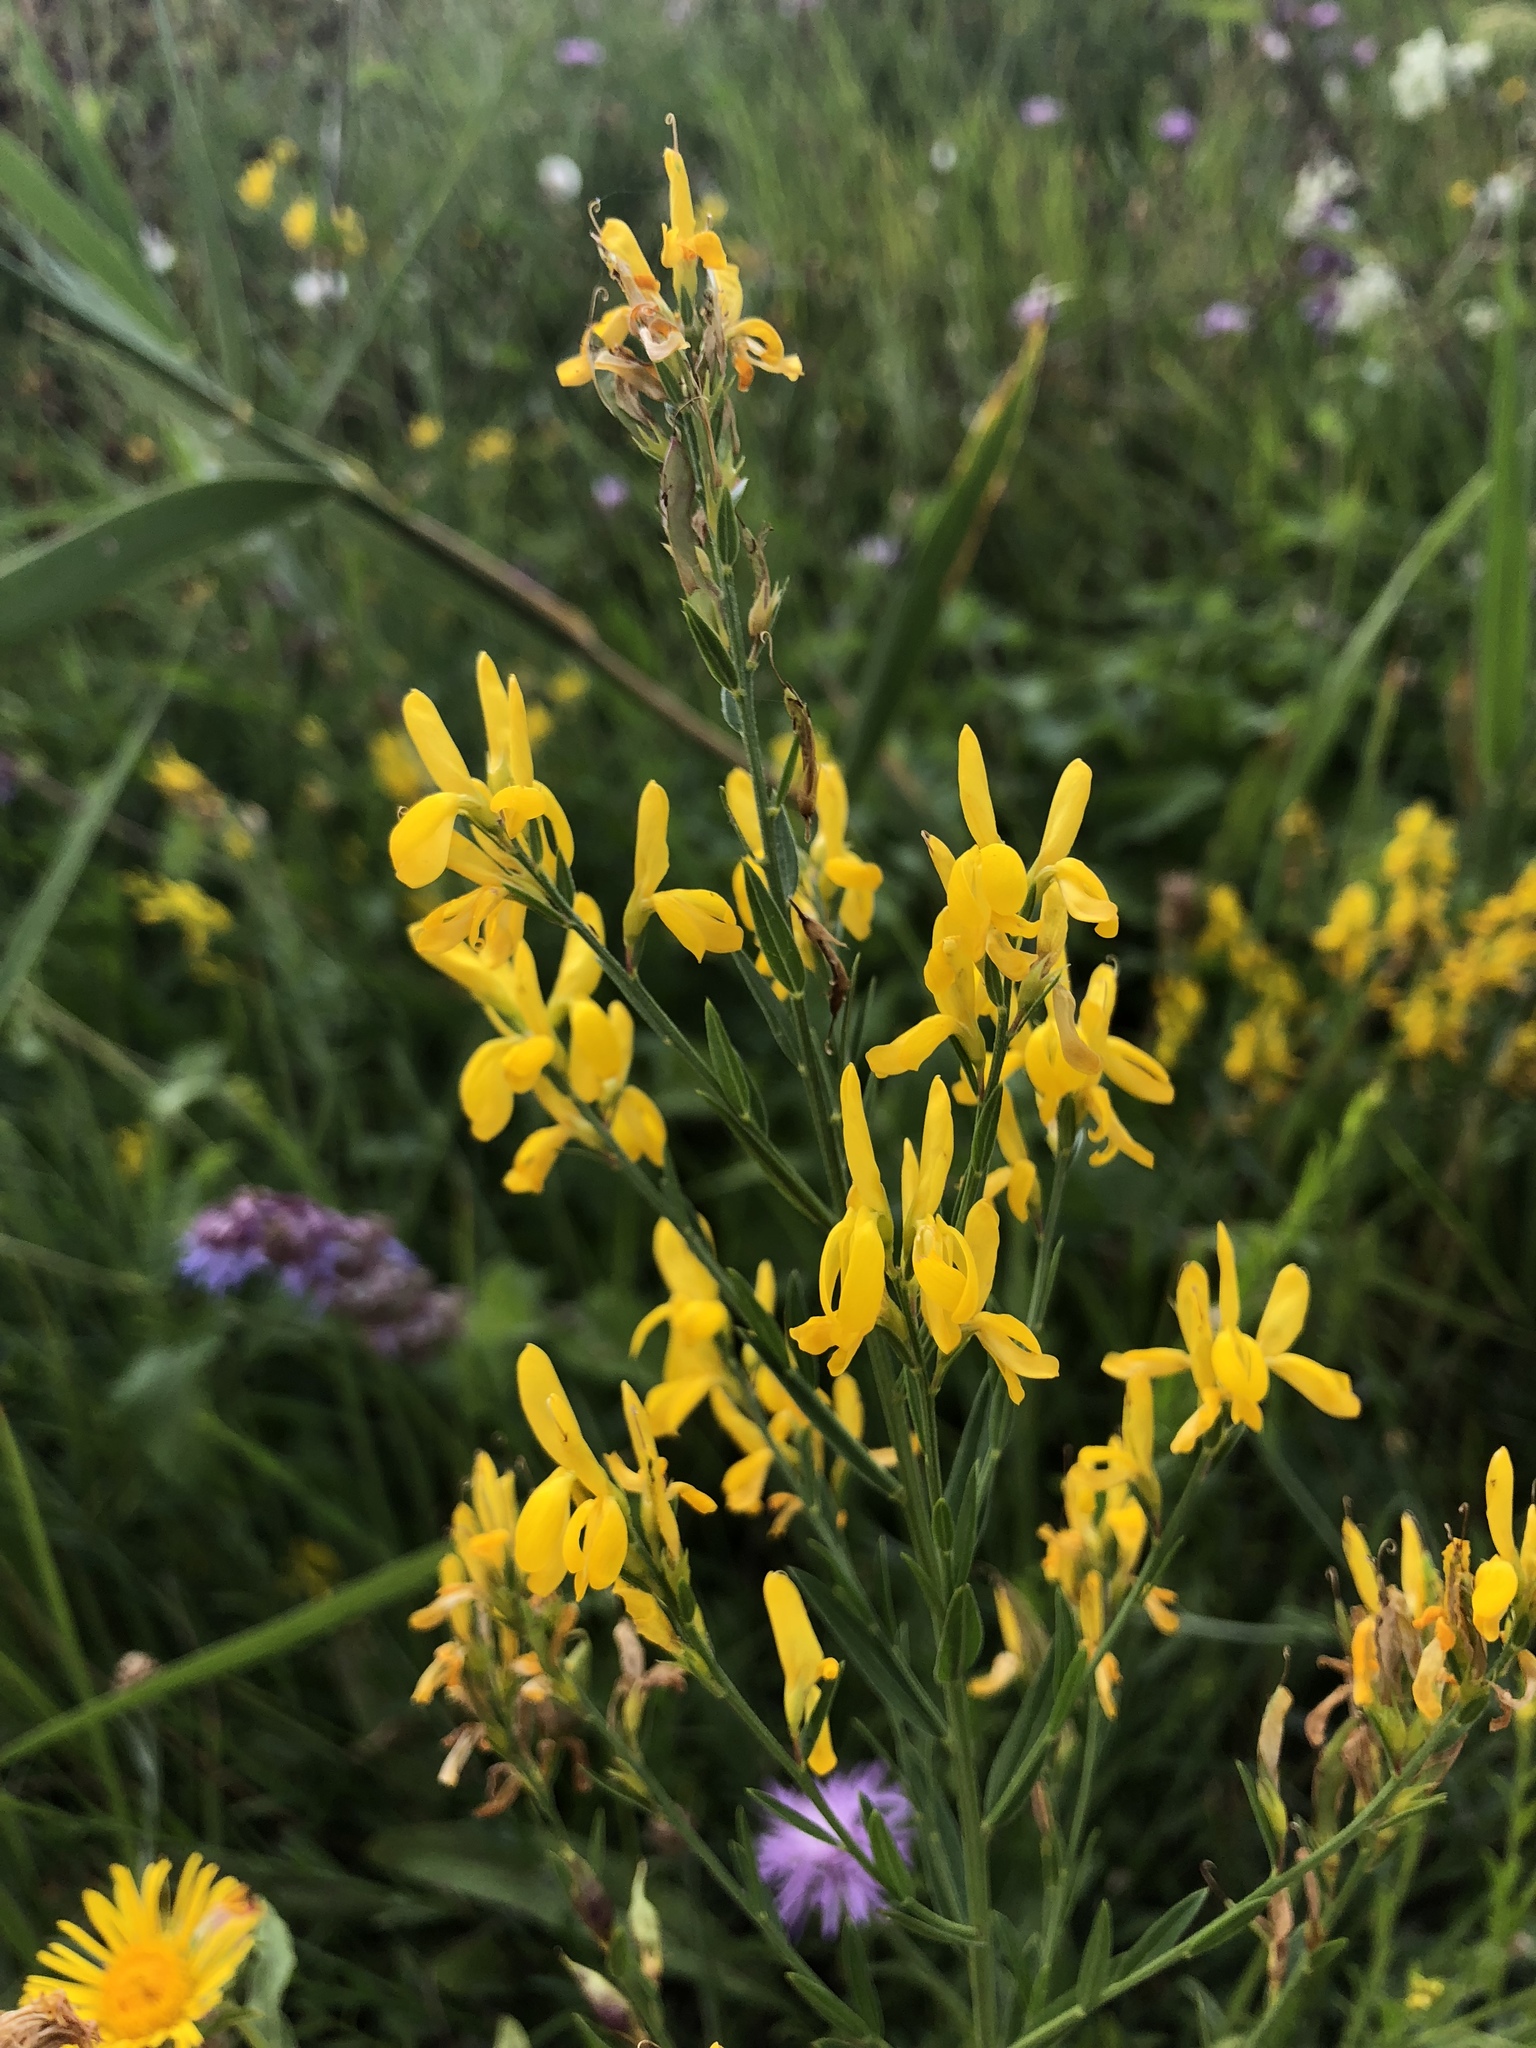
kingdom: Plantae
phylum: Tracheophyta
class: Magnoliopsida
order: Fabales
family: Fabaceae
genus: Genista
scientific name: Genista tinctoria
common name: Dyer's greenweed
